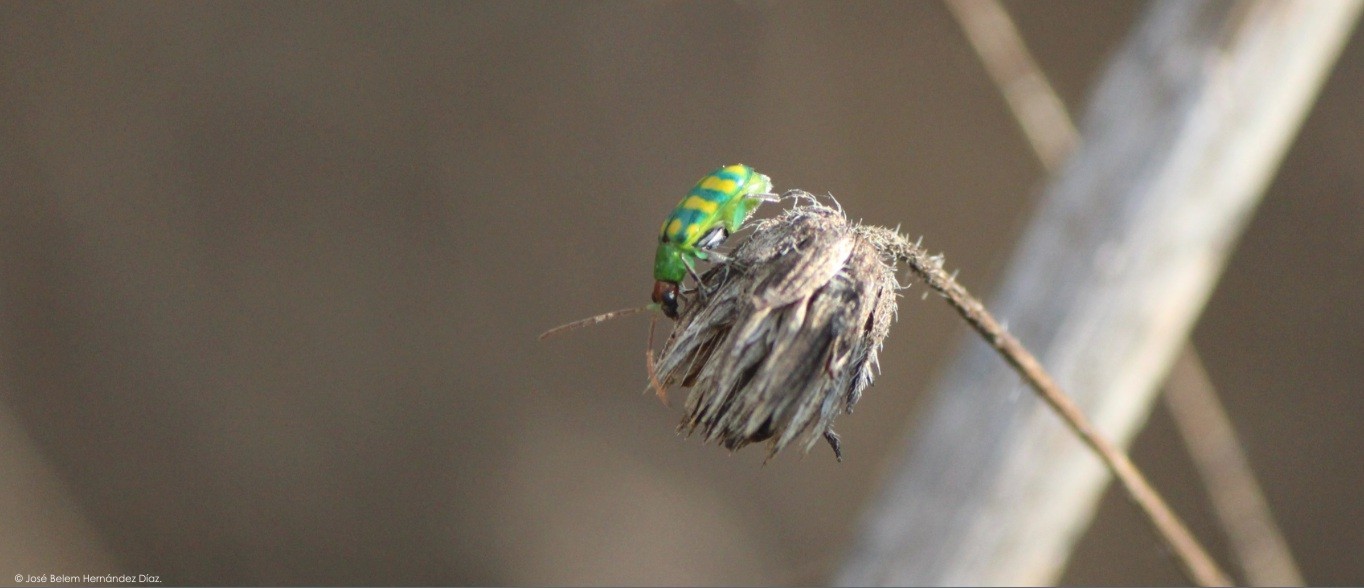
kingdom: Animalia
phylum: Arthropoda
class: Insecta
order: Coleoptera
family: Chrysomelidae
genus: Diabrotica
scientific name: Diabrotica balteata
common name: Leaf beetle
